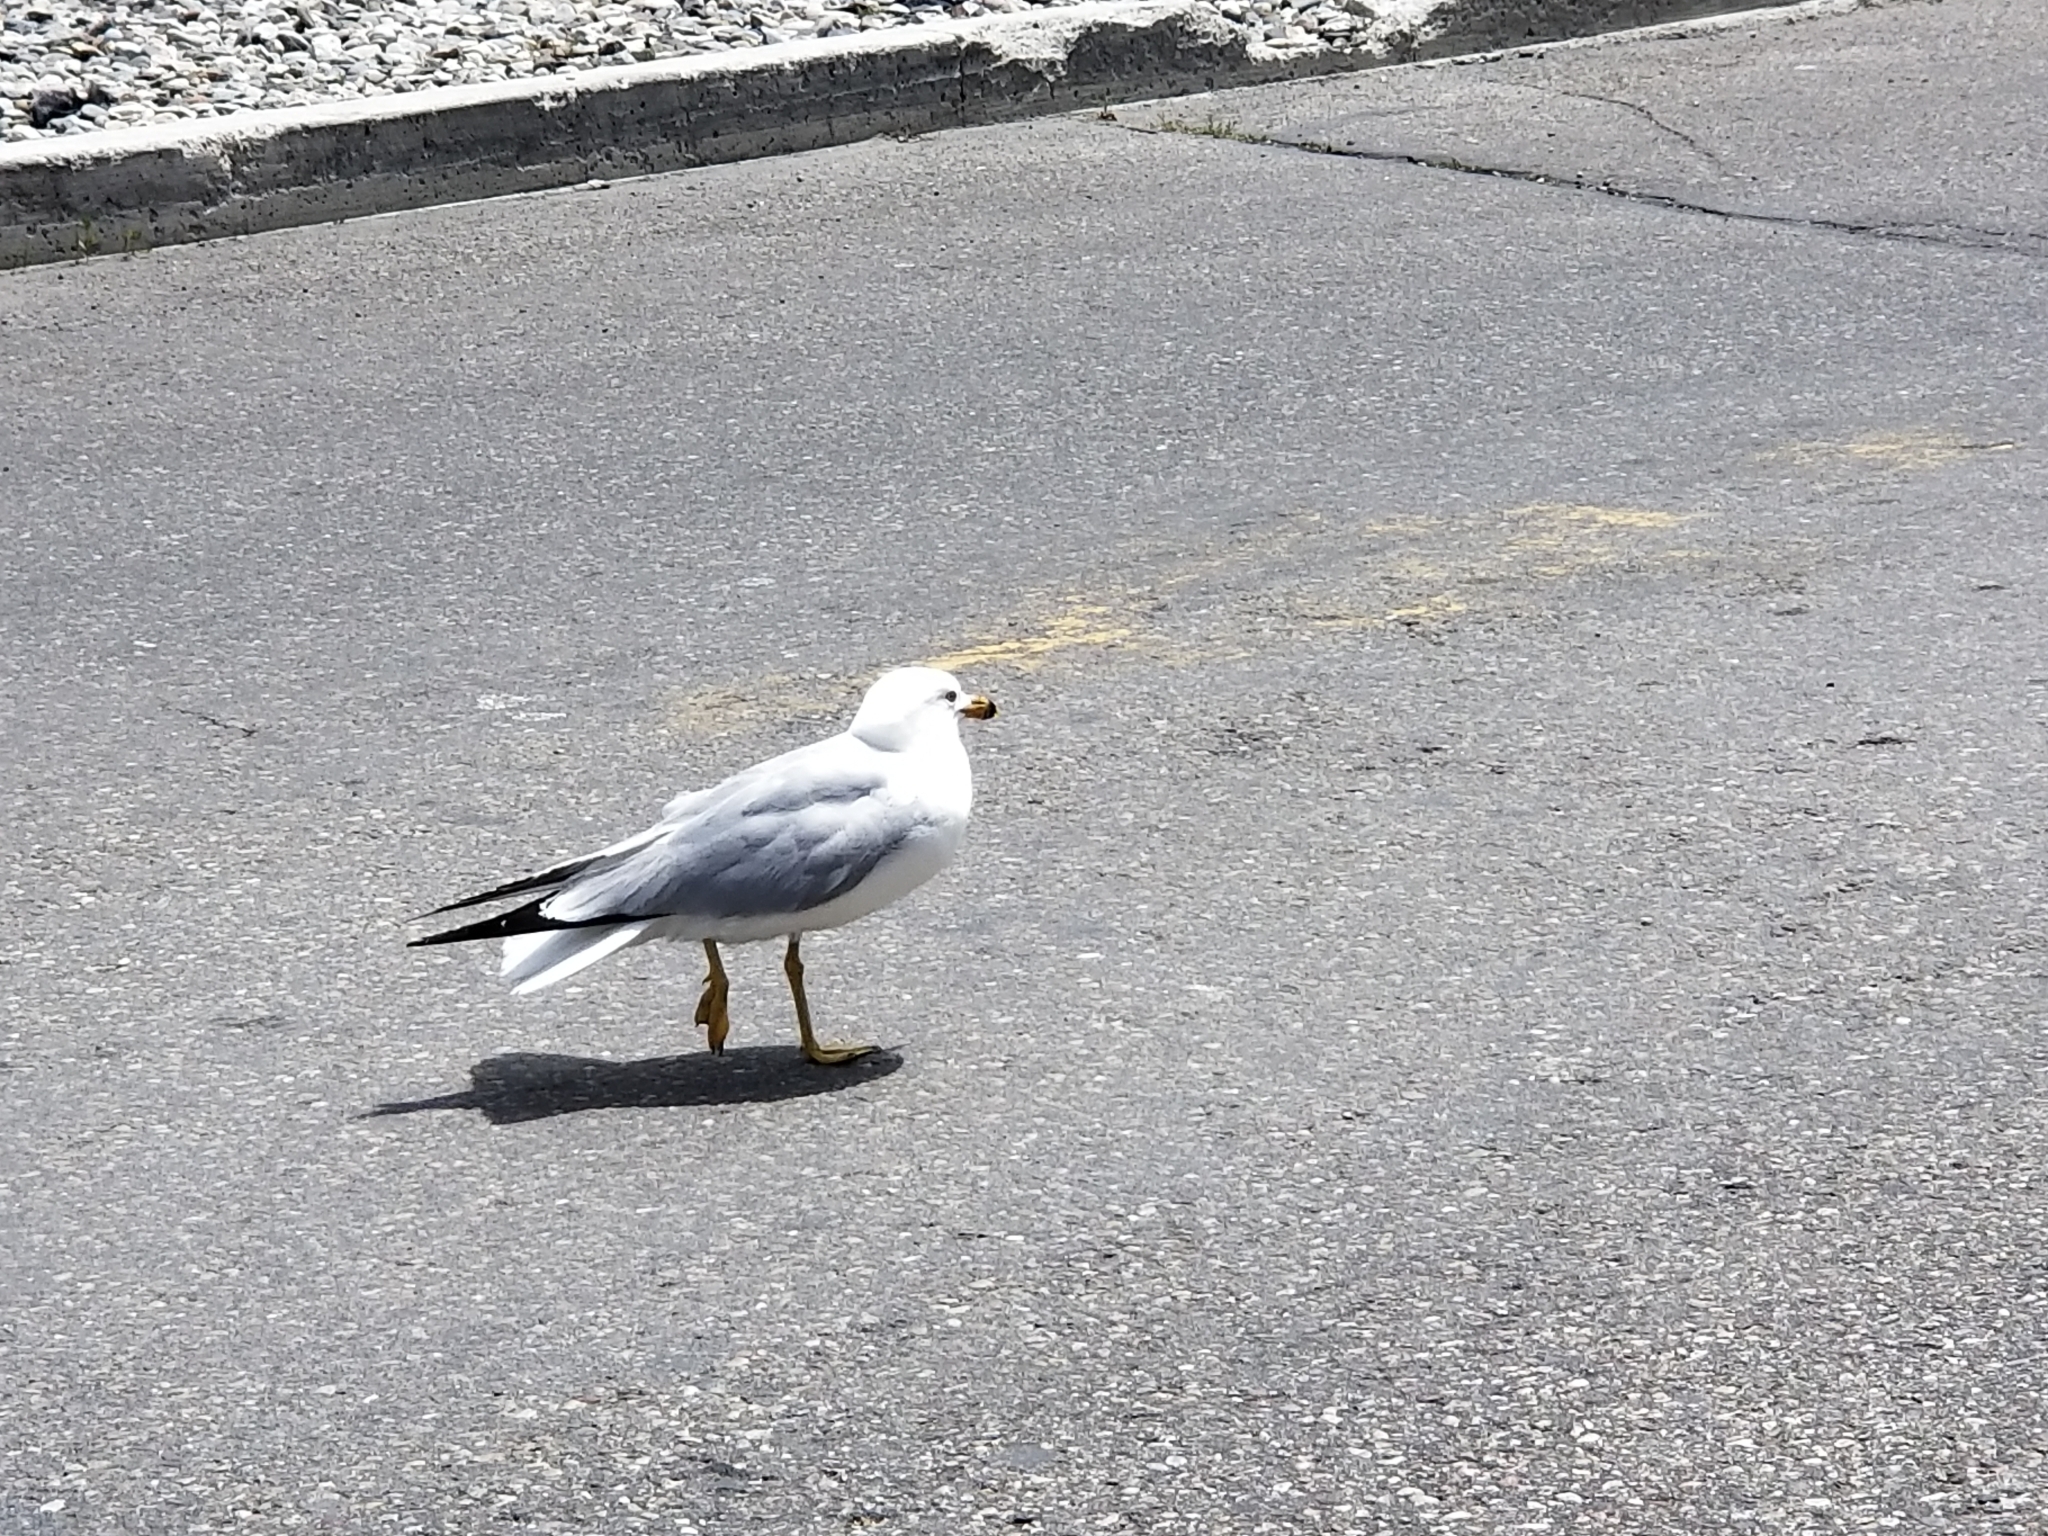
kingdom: Animalia
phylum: Chordata
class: Aves
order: Charadriiformes
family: Laridae
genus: Larus
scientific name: Larus delawarensis
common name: Ring-billed gull
